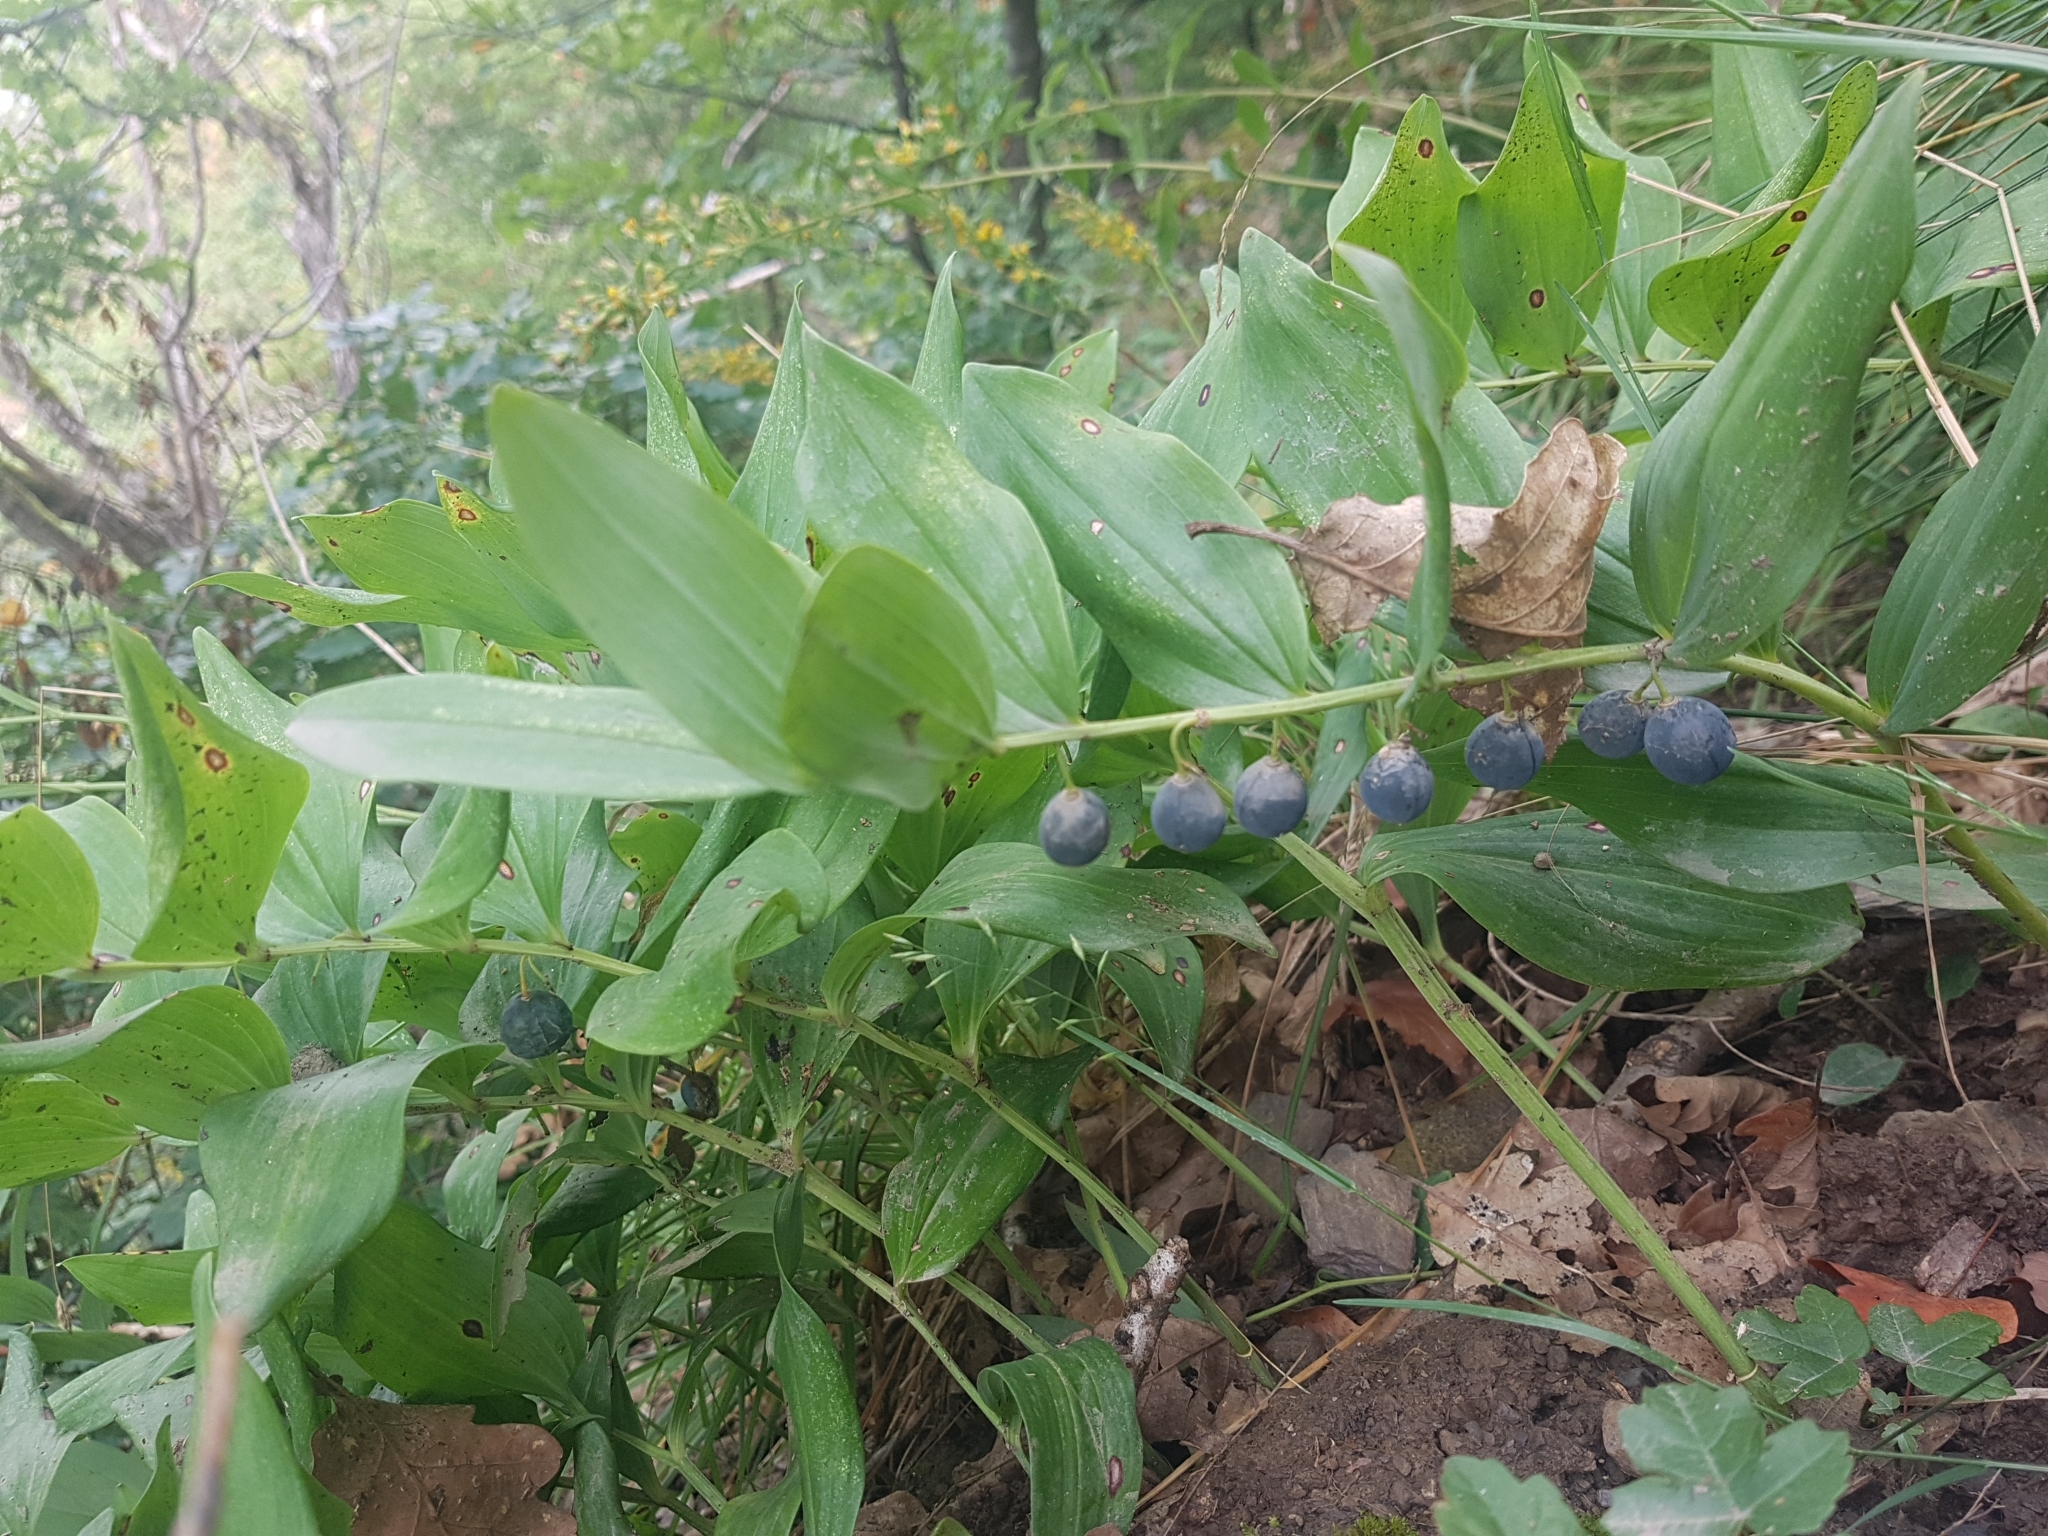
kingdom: Plantae
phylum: Tracheophyta
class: Liliopsida
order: Asparagales
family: Asparagaceae
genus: Polygonatum
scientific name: Polygonatum odoratum
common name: Angular solomon's-seal
